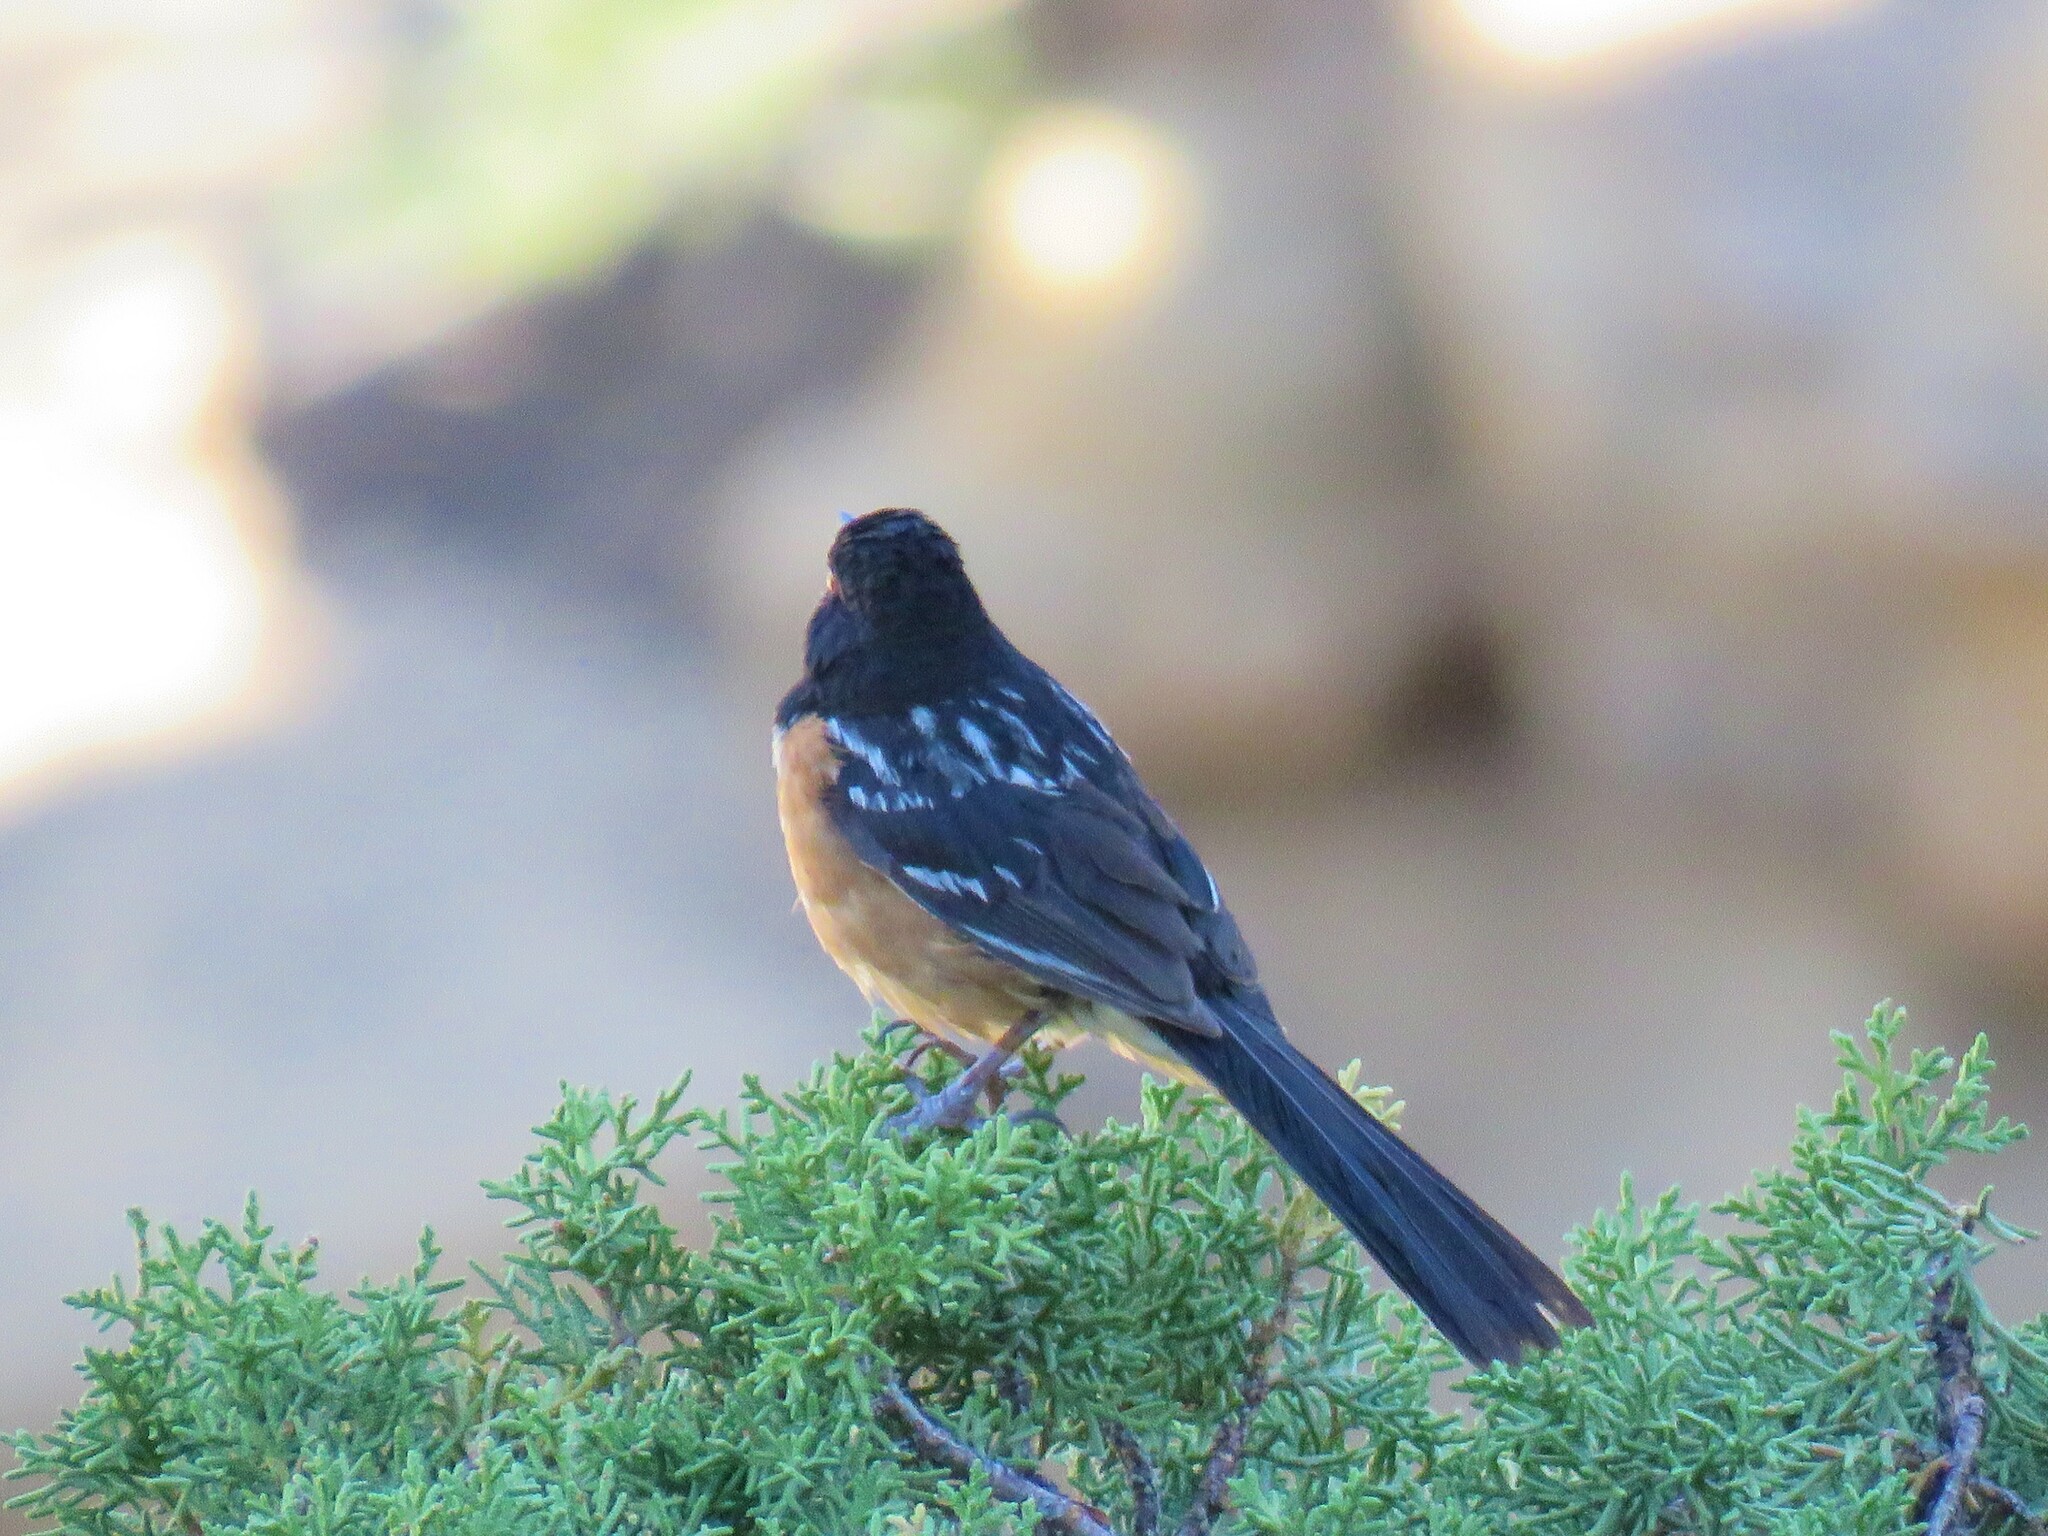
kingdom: Animalia
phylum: Chordata
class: Aves
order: Passeriformes
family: Passerellidae
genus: Pipilo
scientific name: Pipilo maculatus
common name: Spotted towhee
